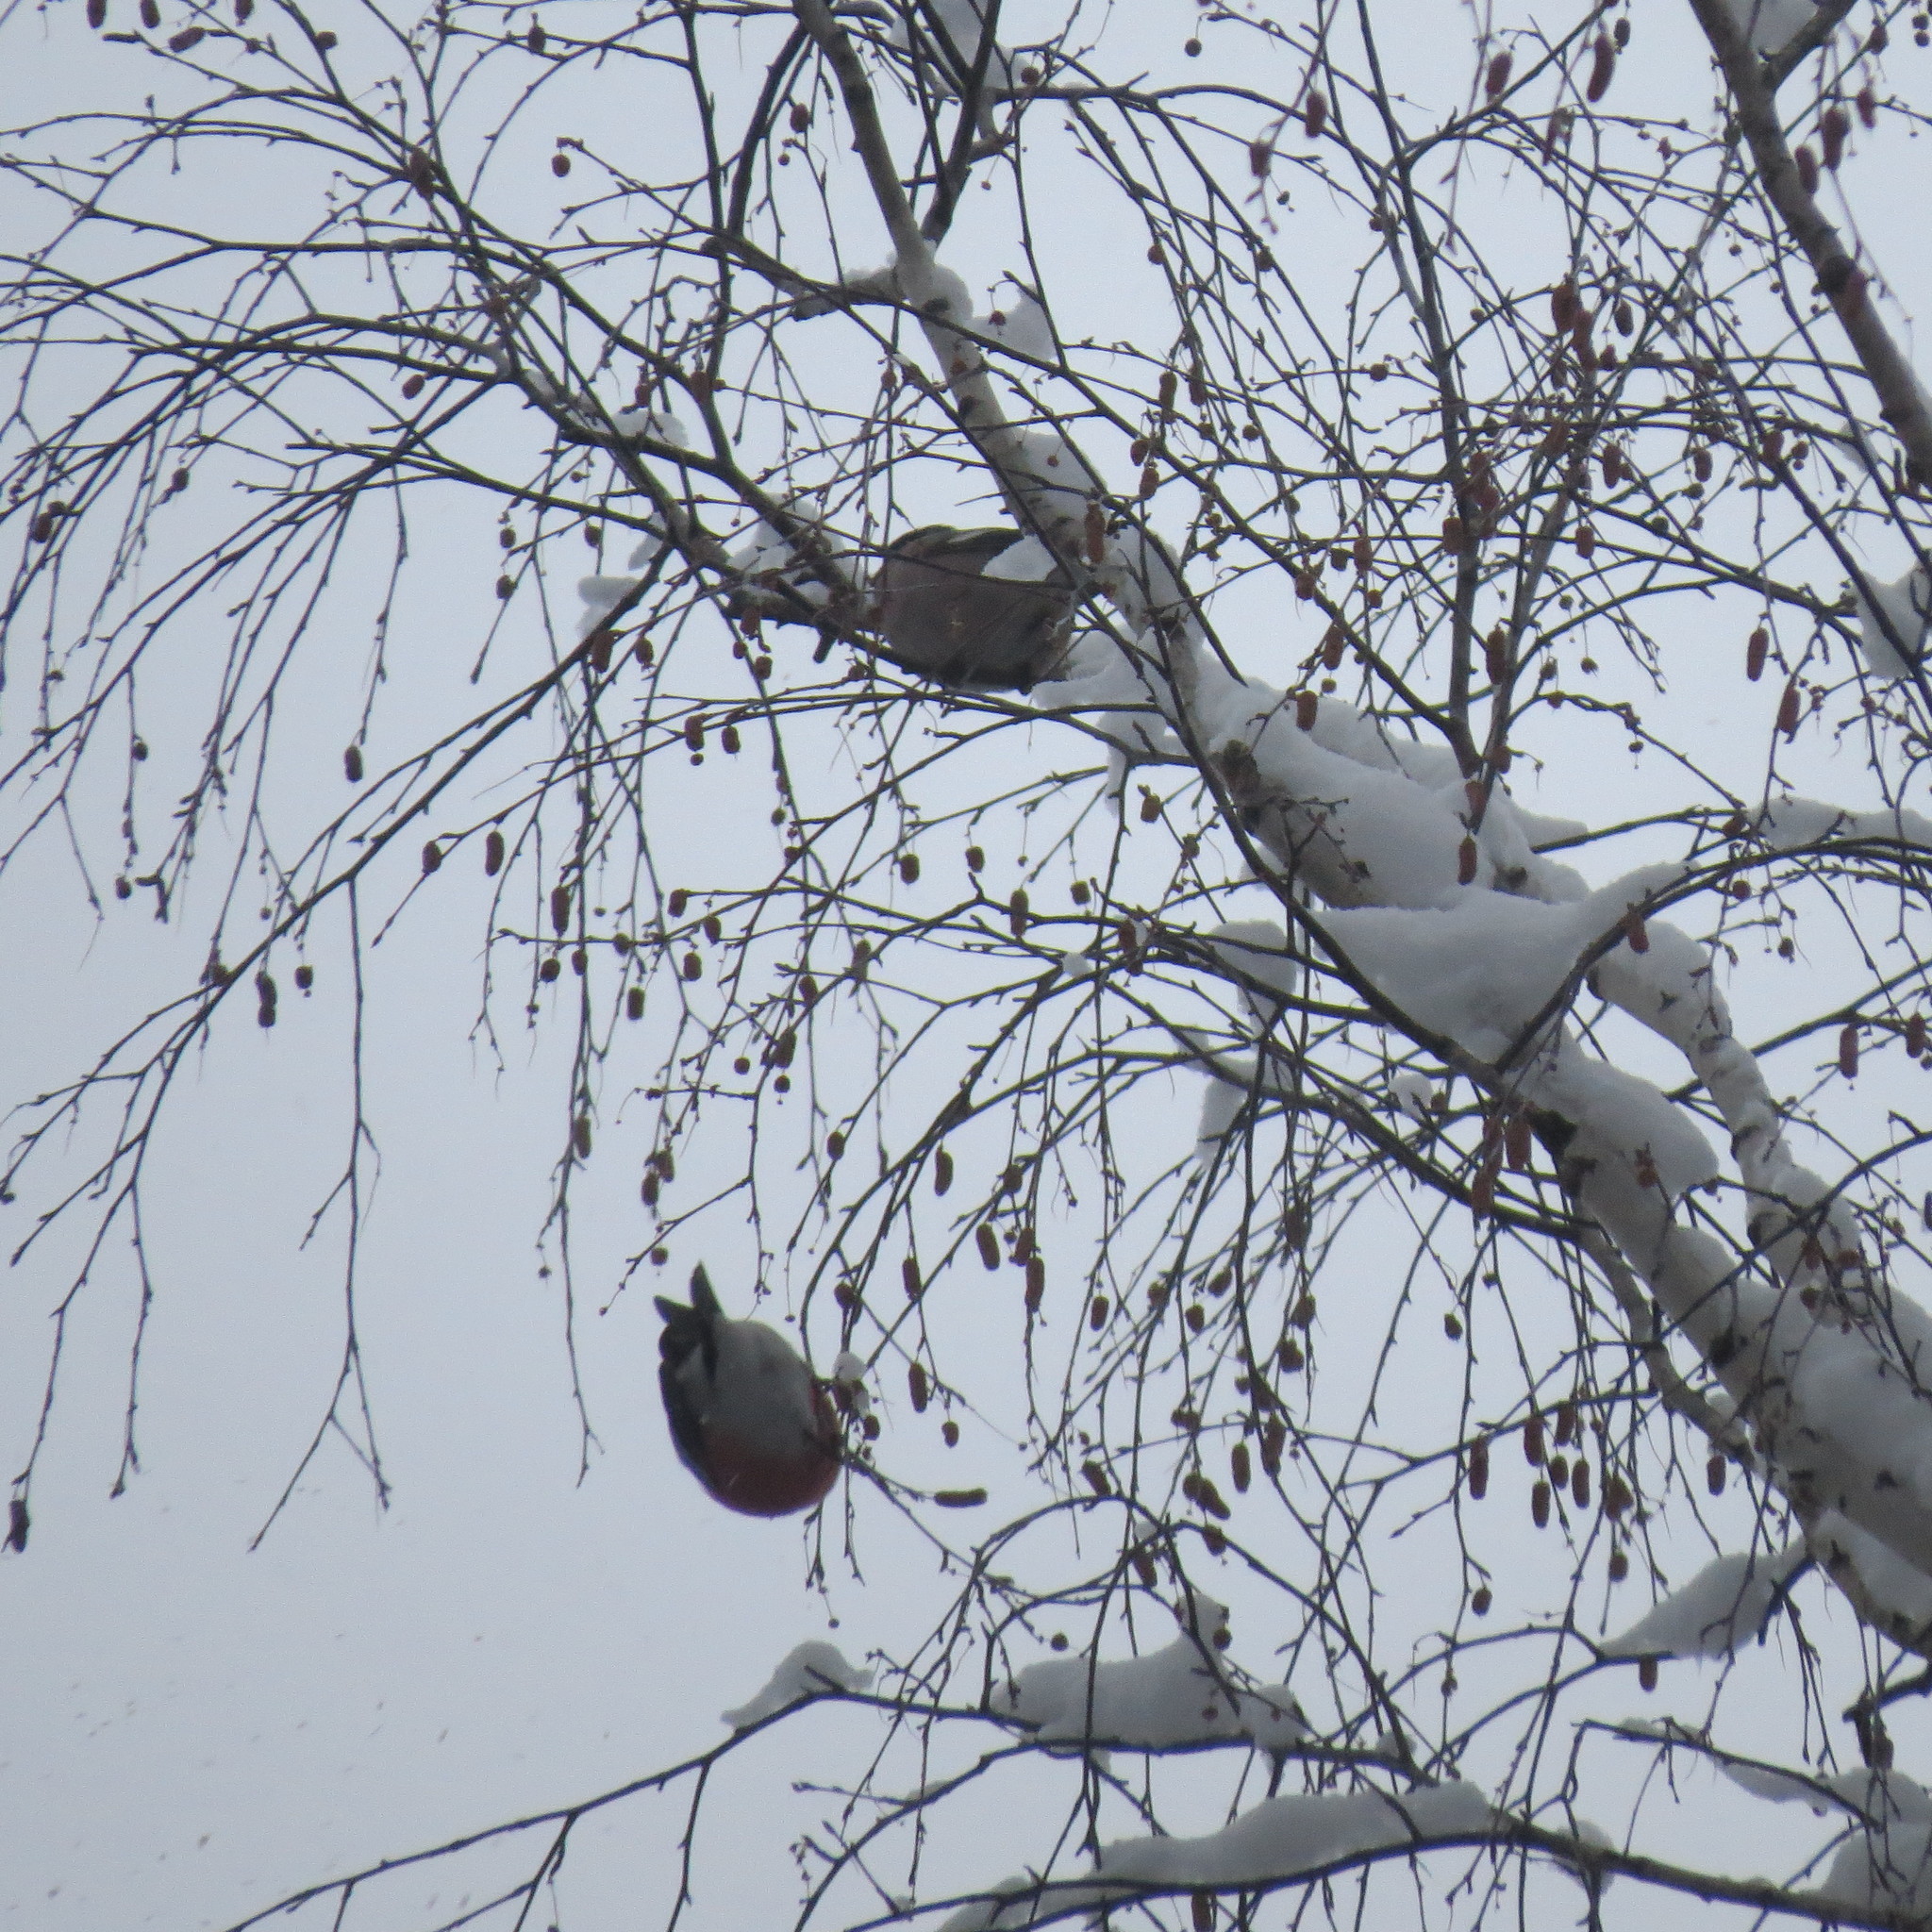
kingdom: Animalia
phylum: Chordata
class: Aves
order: Passeriformes
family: Fringillidae
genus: Pyrrhula
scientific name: Pyrrhula pyrrhula
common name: Eurasian bullfinch
